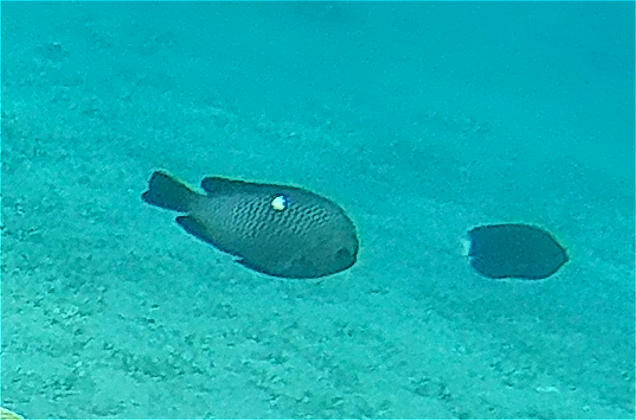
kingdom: Animalia
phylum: Chordata
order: Perciformes
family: Pomacentridae
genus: Dascyllus
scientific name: Dascyllus trimaculatus
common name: Threespot dascyllus
